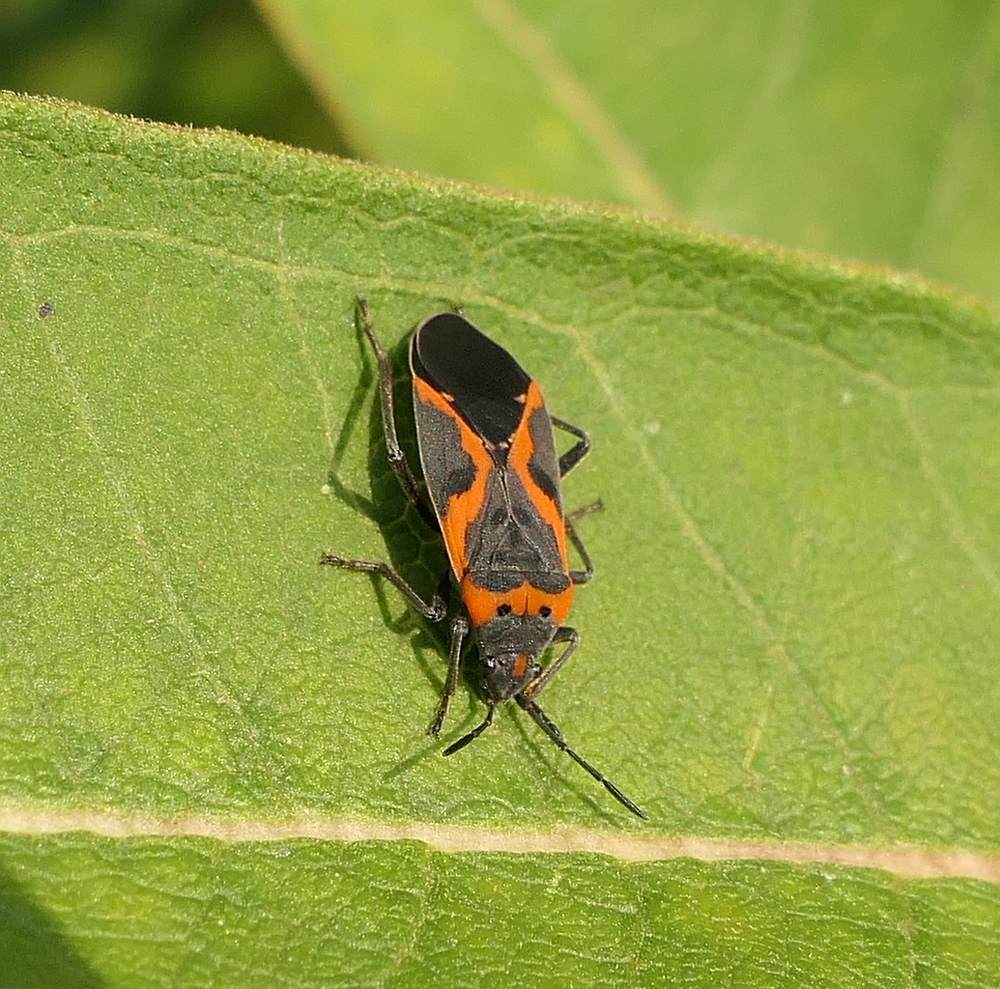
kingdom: Animalia
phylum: Arthropoda
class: Insecta
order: Hemiptera
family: Lygaeidae
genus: Lygaeus
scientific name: Lygaeus kalmii
